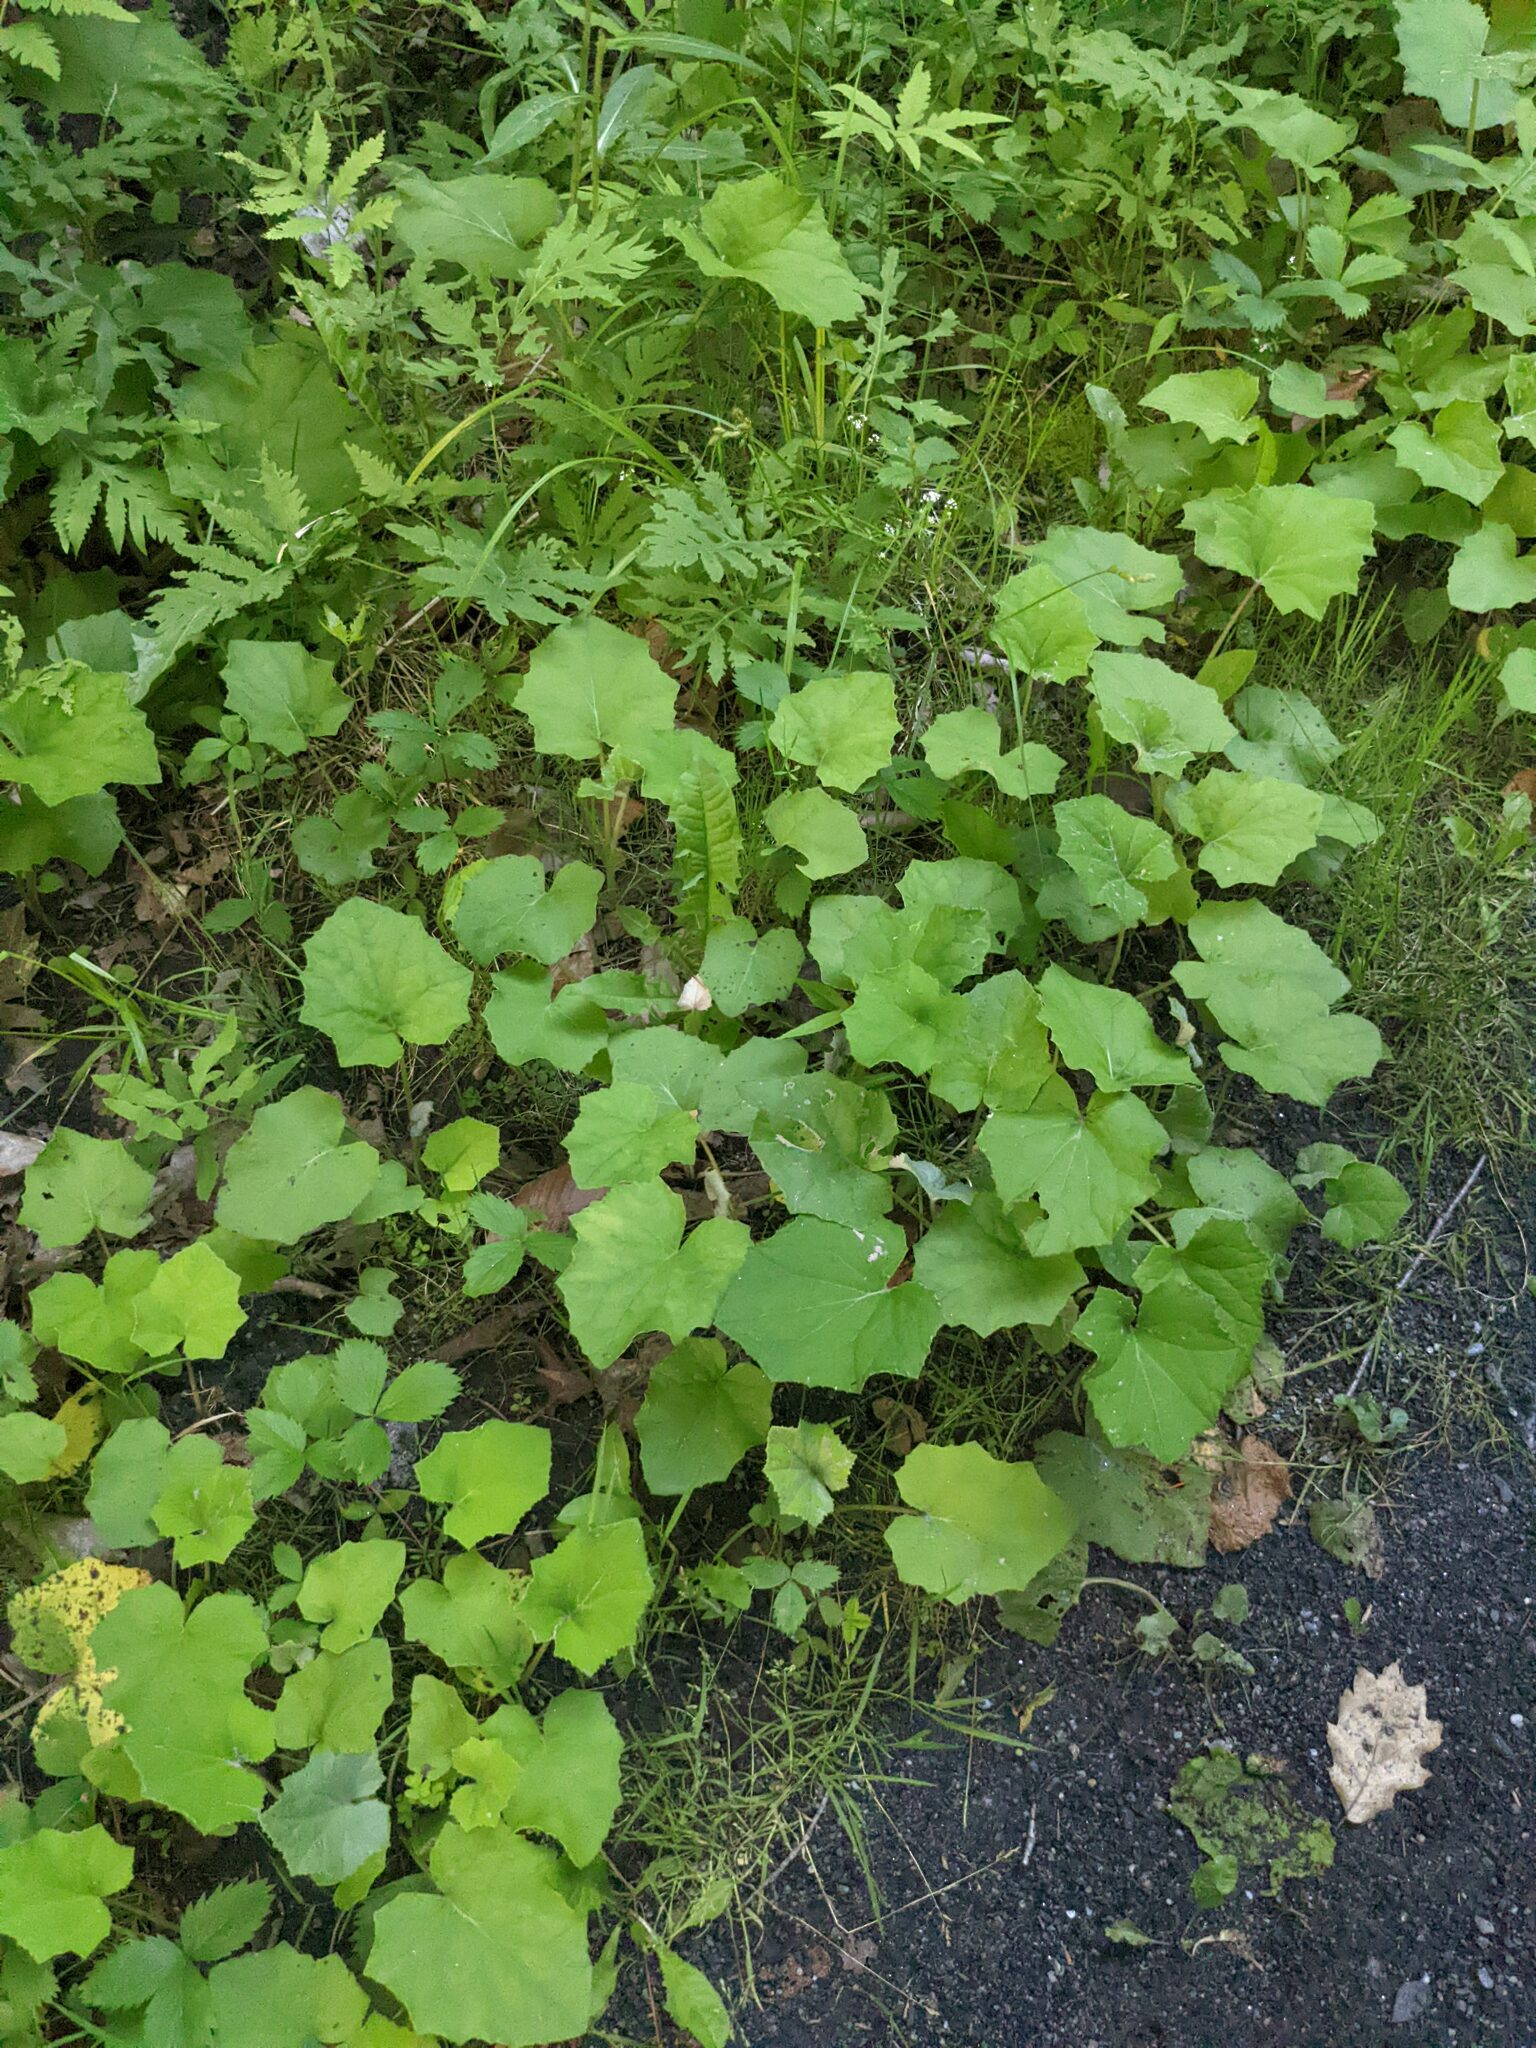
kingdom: Plantae
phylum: Tracheophyta
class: Magnoliopsida
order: Asterales
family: Asteraceae
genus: Tussilago
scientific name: Tussilago farfara
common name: Coltsfoot
